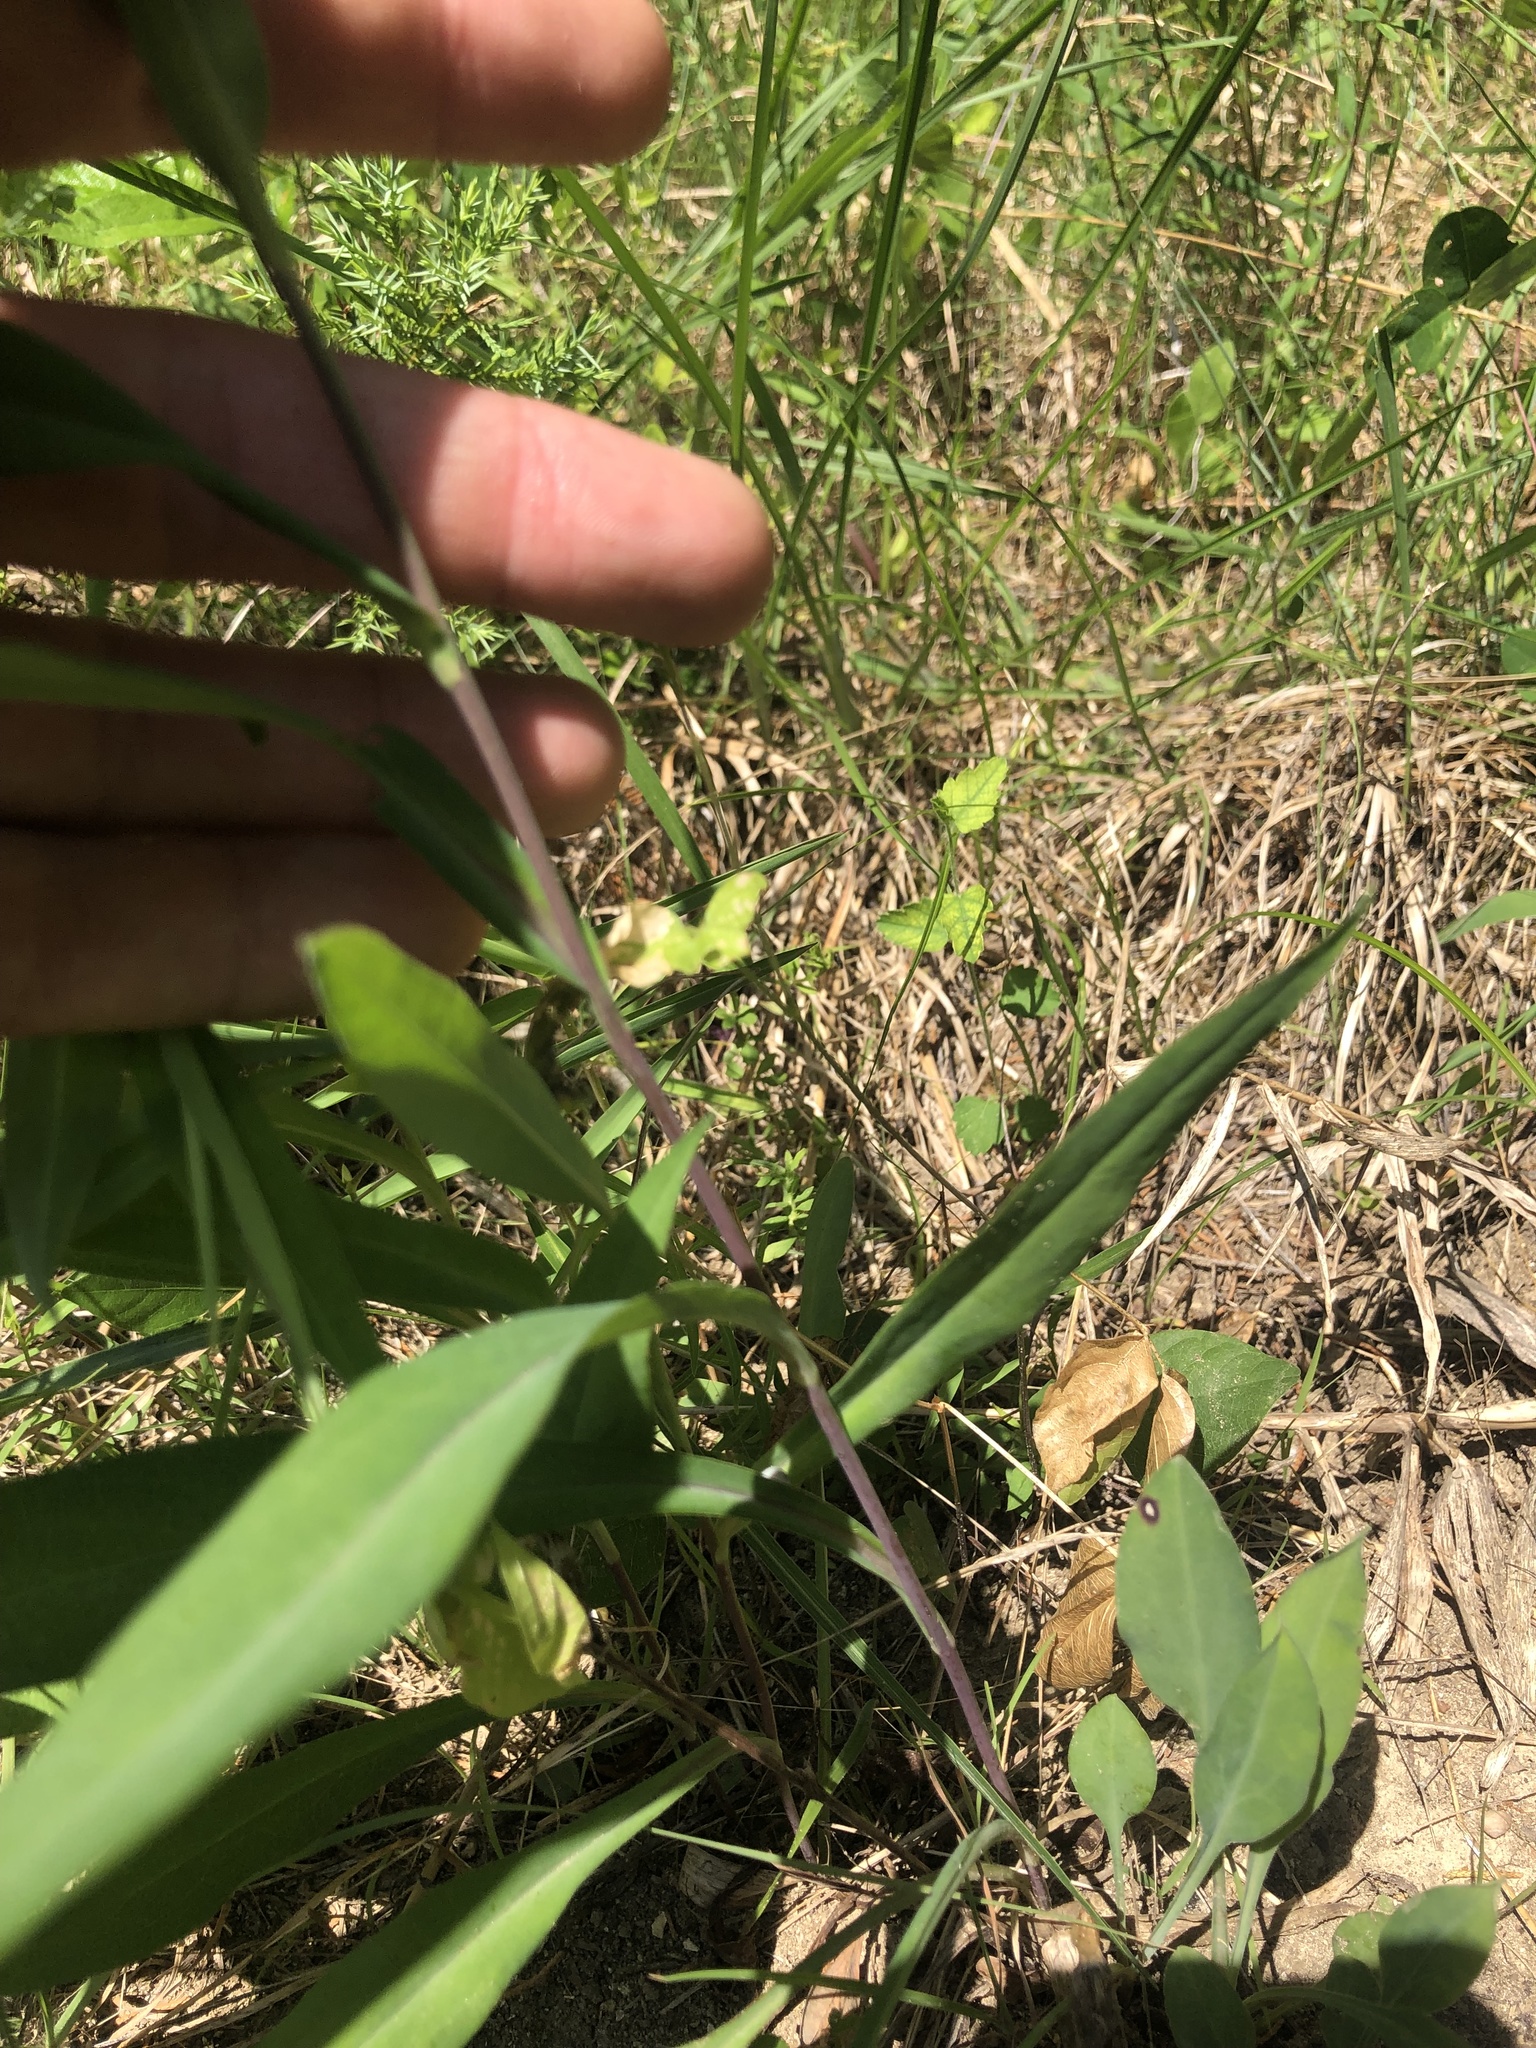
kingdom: Plantae
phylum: Tracheophyta
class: Magnoliopsida
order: Asterales
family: Asteraceae
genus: Symphyotrichum
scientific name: Symphyotrichum laeve
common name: Glaucous aster
